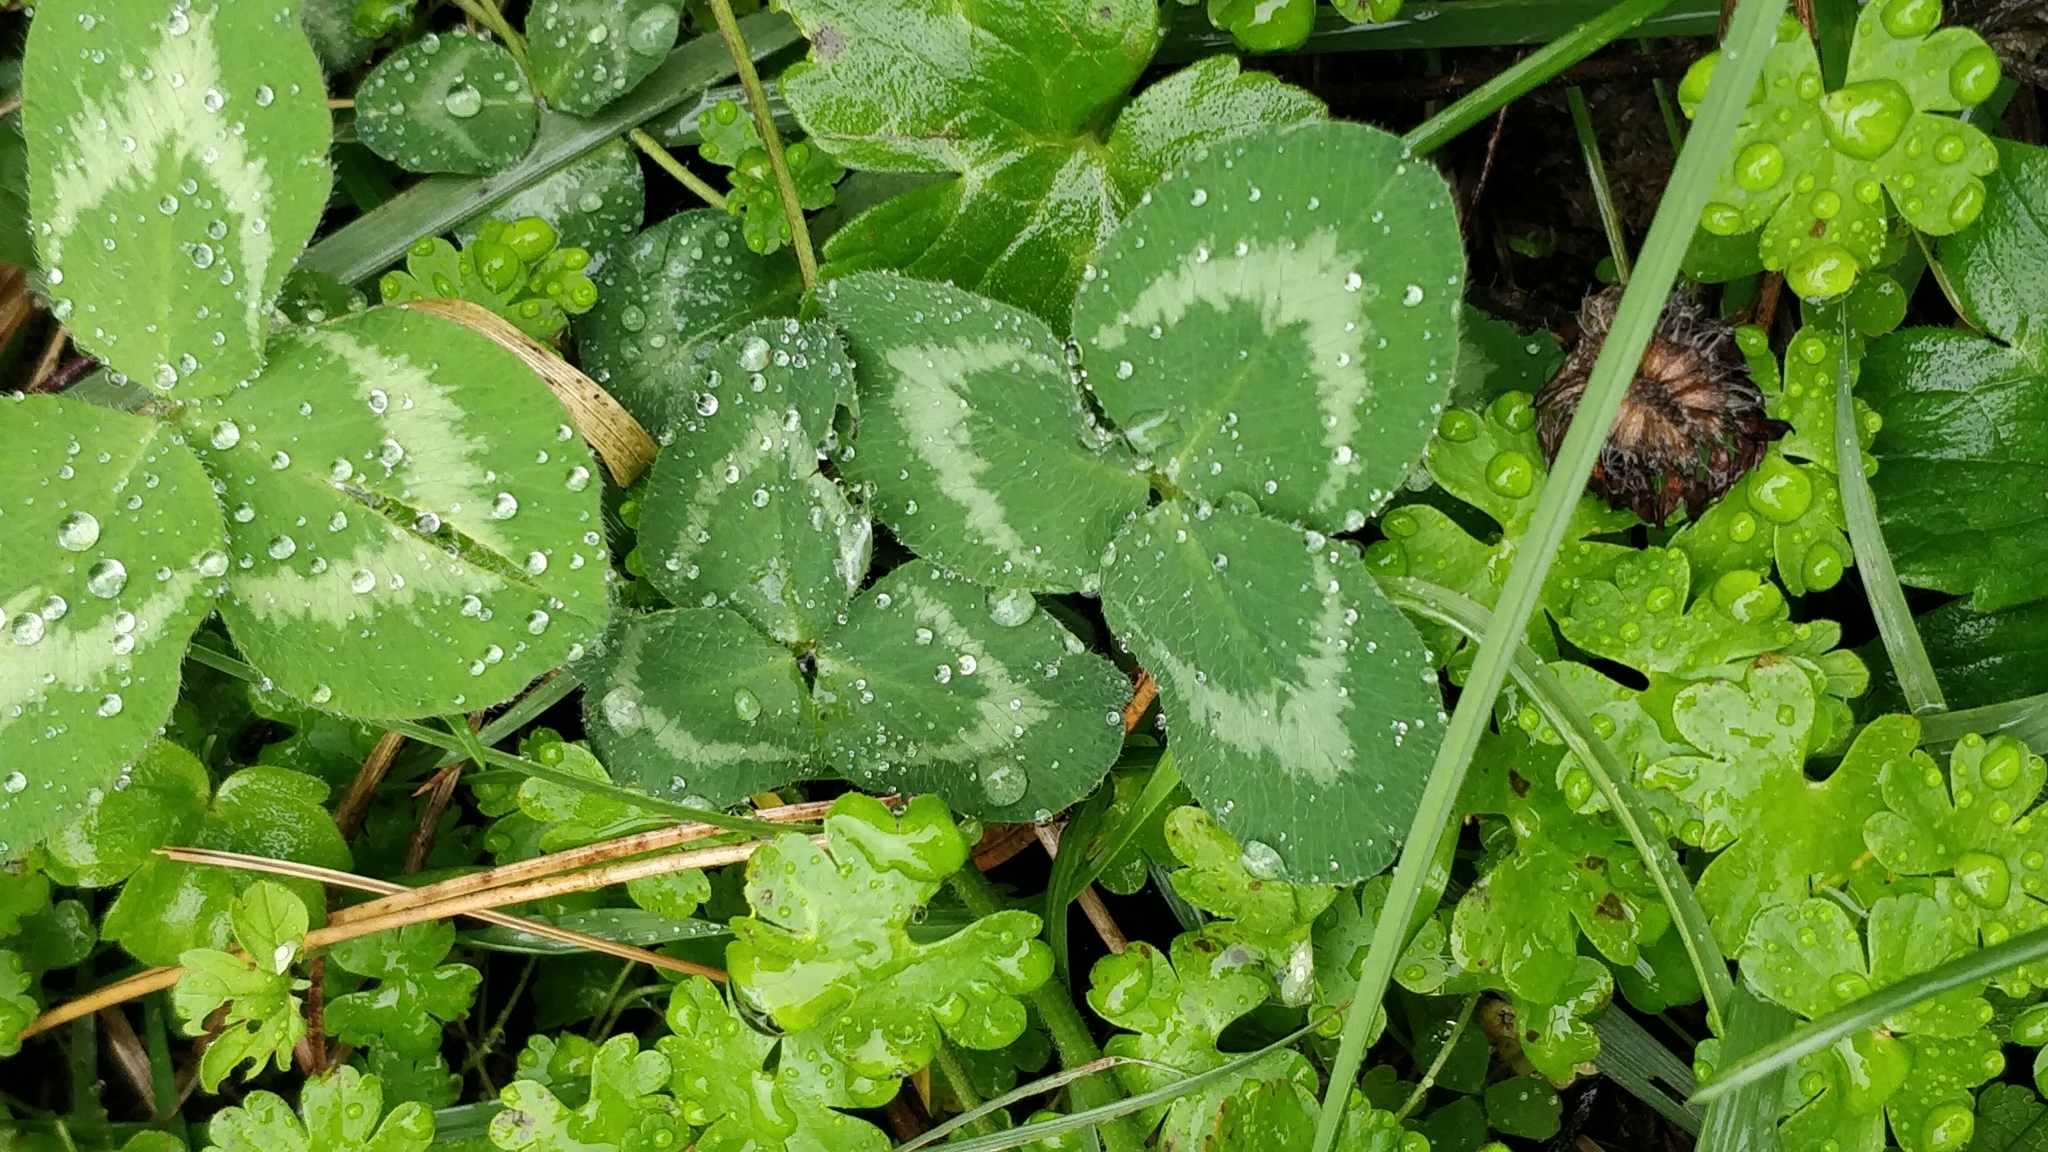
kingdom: Plantae
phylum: Tracheophyta
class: Magnoliopsida
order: Fabales
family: Fabaceae
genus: Trifolium
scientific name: Trifolium pratense
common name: Red clover
